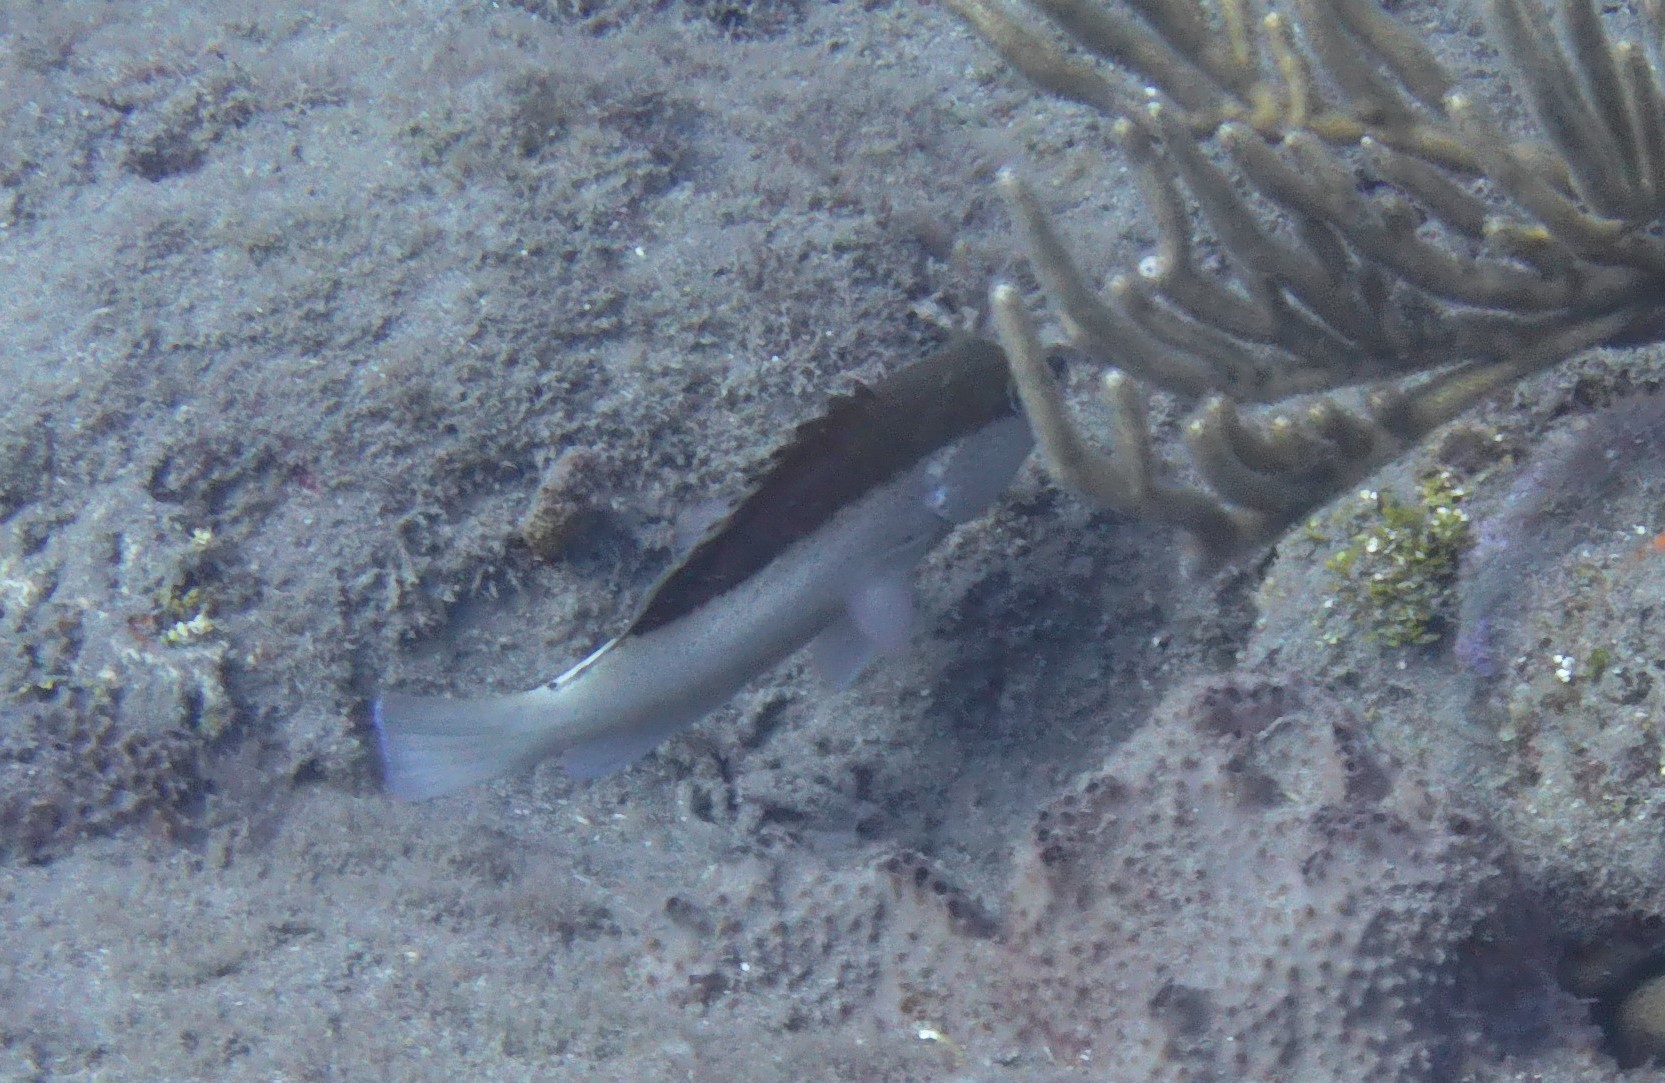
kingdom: Animalia
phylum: Chordata
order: Perciformes
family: Serranidae
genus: Cephalopholis
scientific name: Cephalopholis fulva
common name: Butterfish
